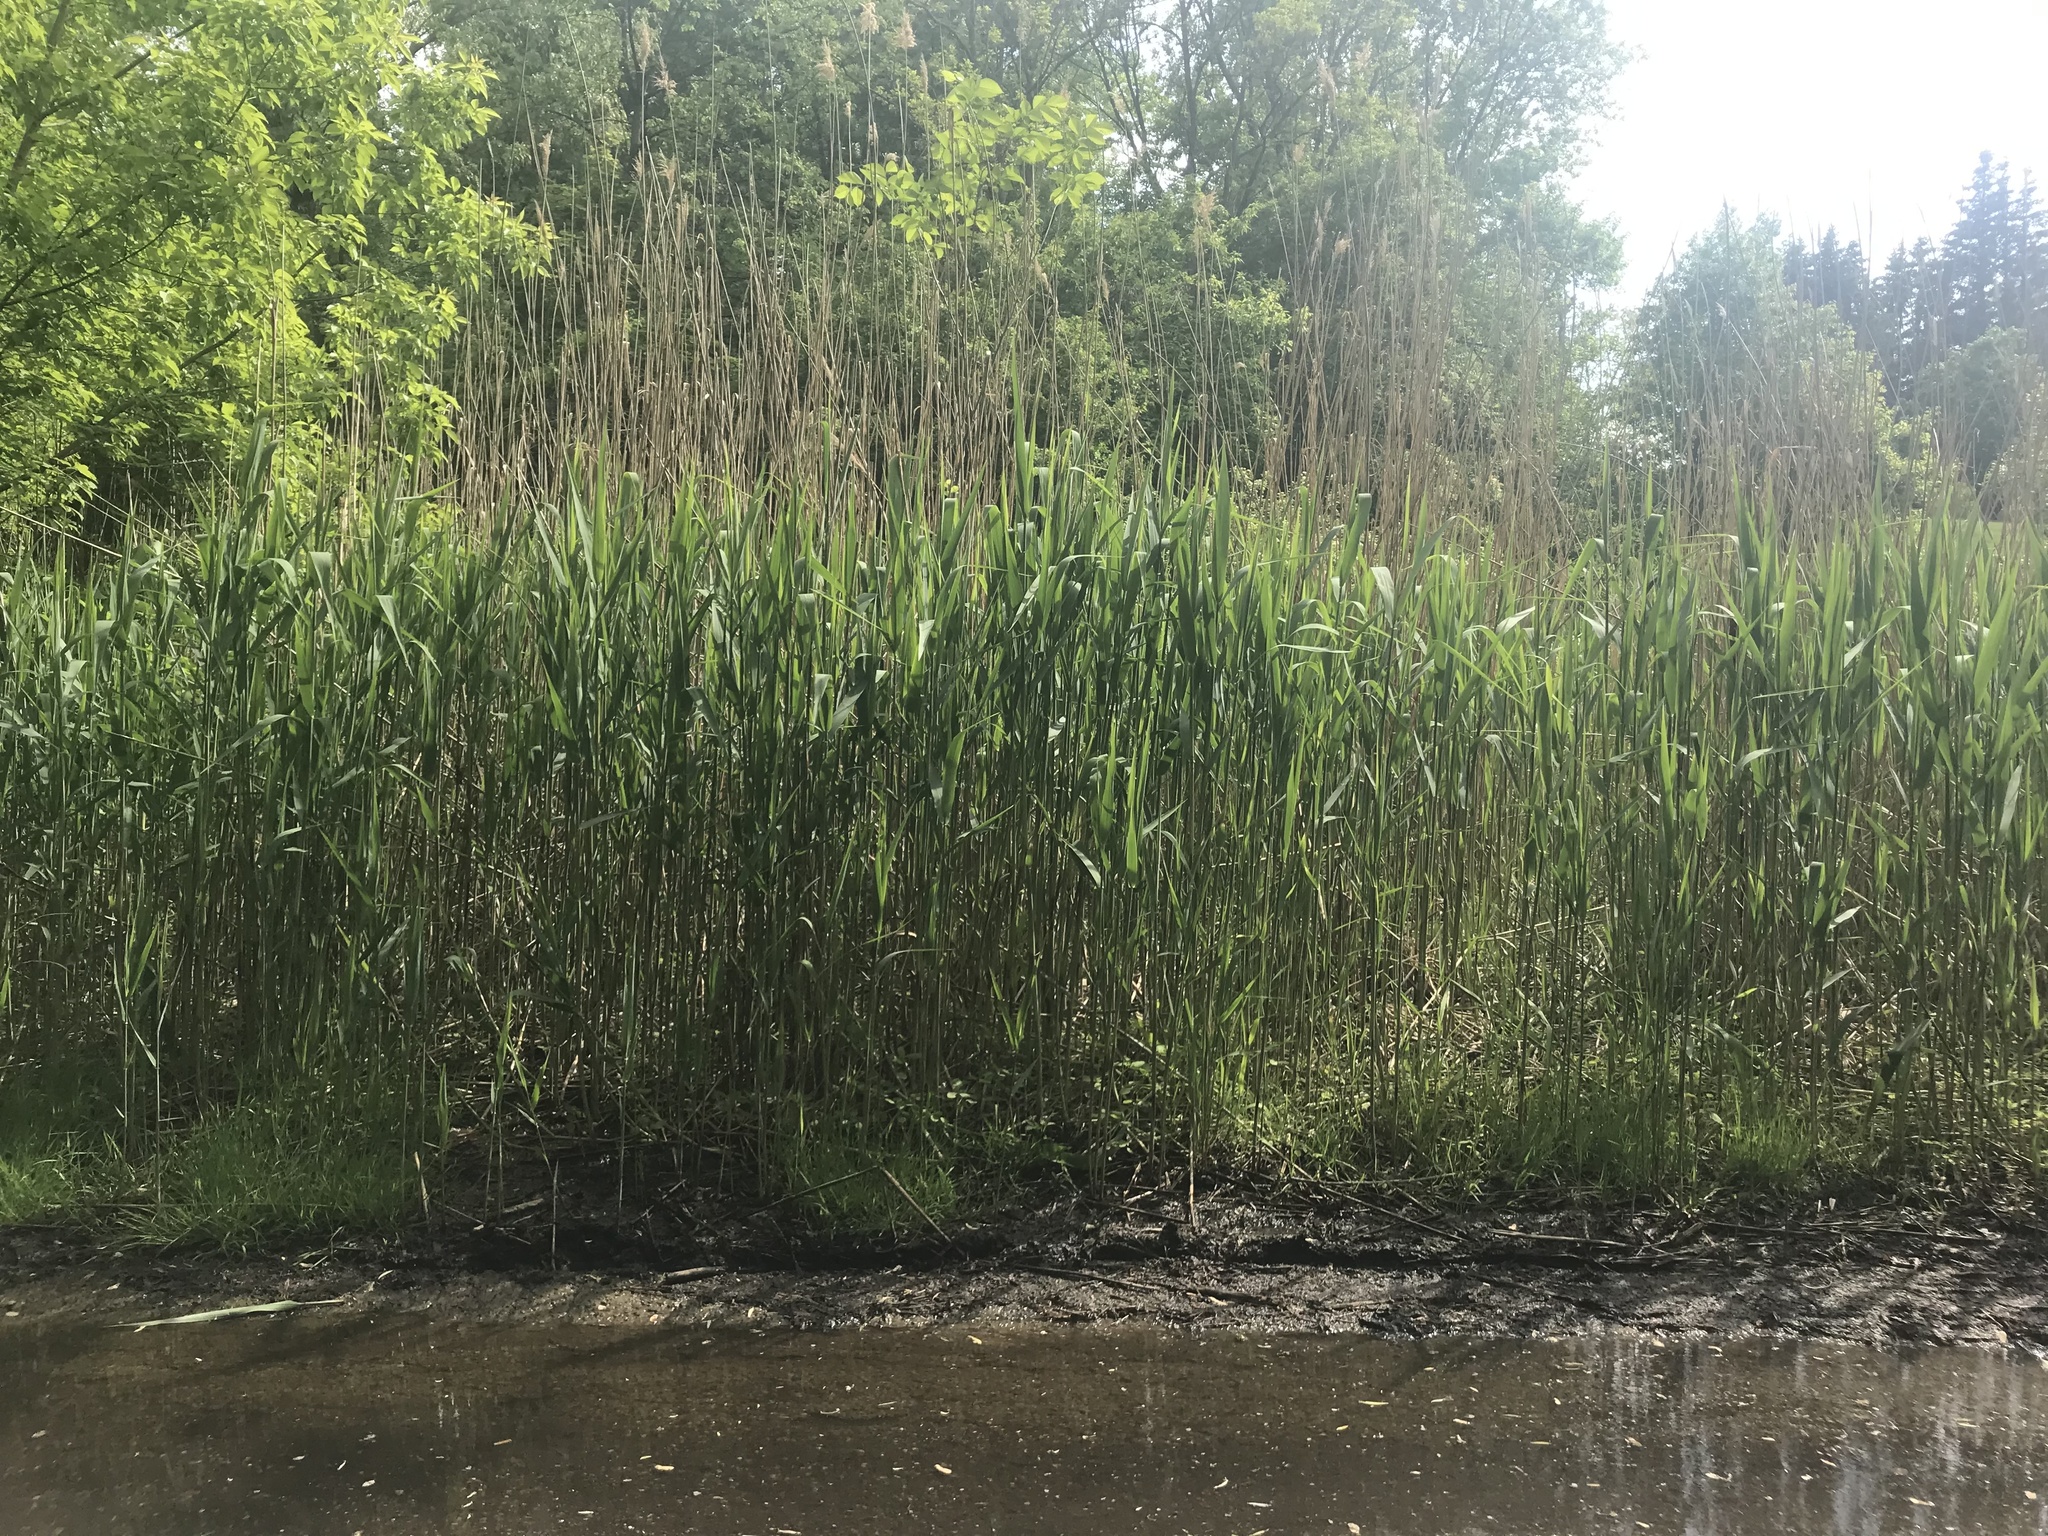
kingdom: Plantae
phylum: Tracheophyta
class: Liliopsida
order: Poales
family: Poaceae
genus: Phragmites
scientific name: Phragmites australis
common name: Common reed
